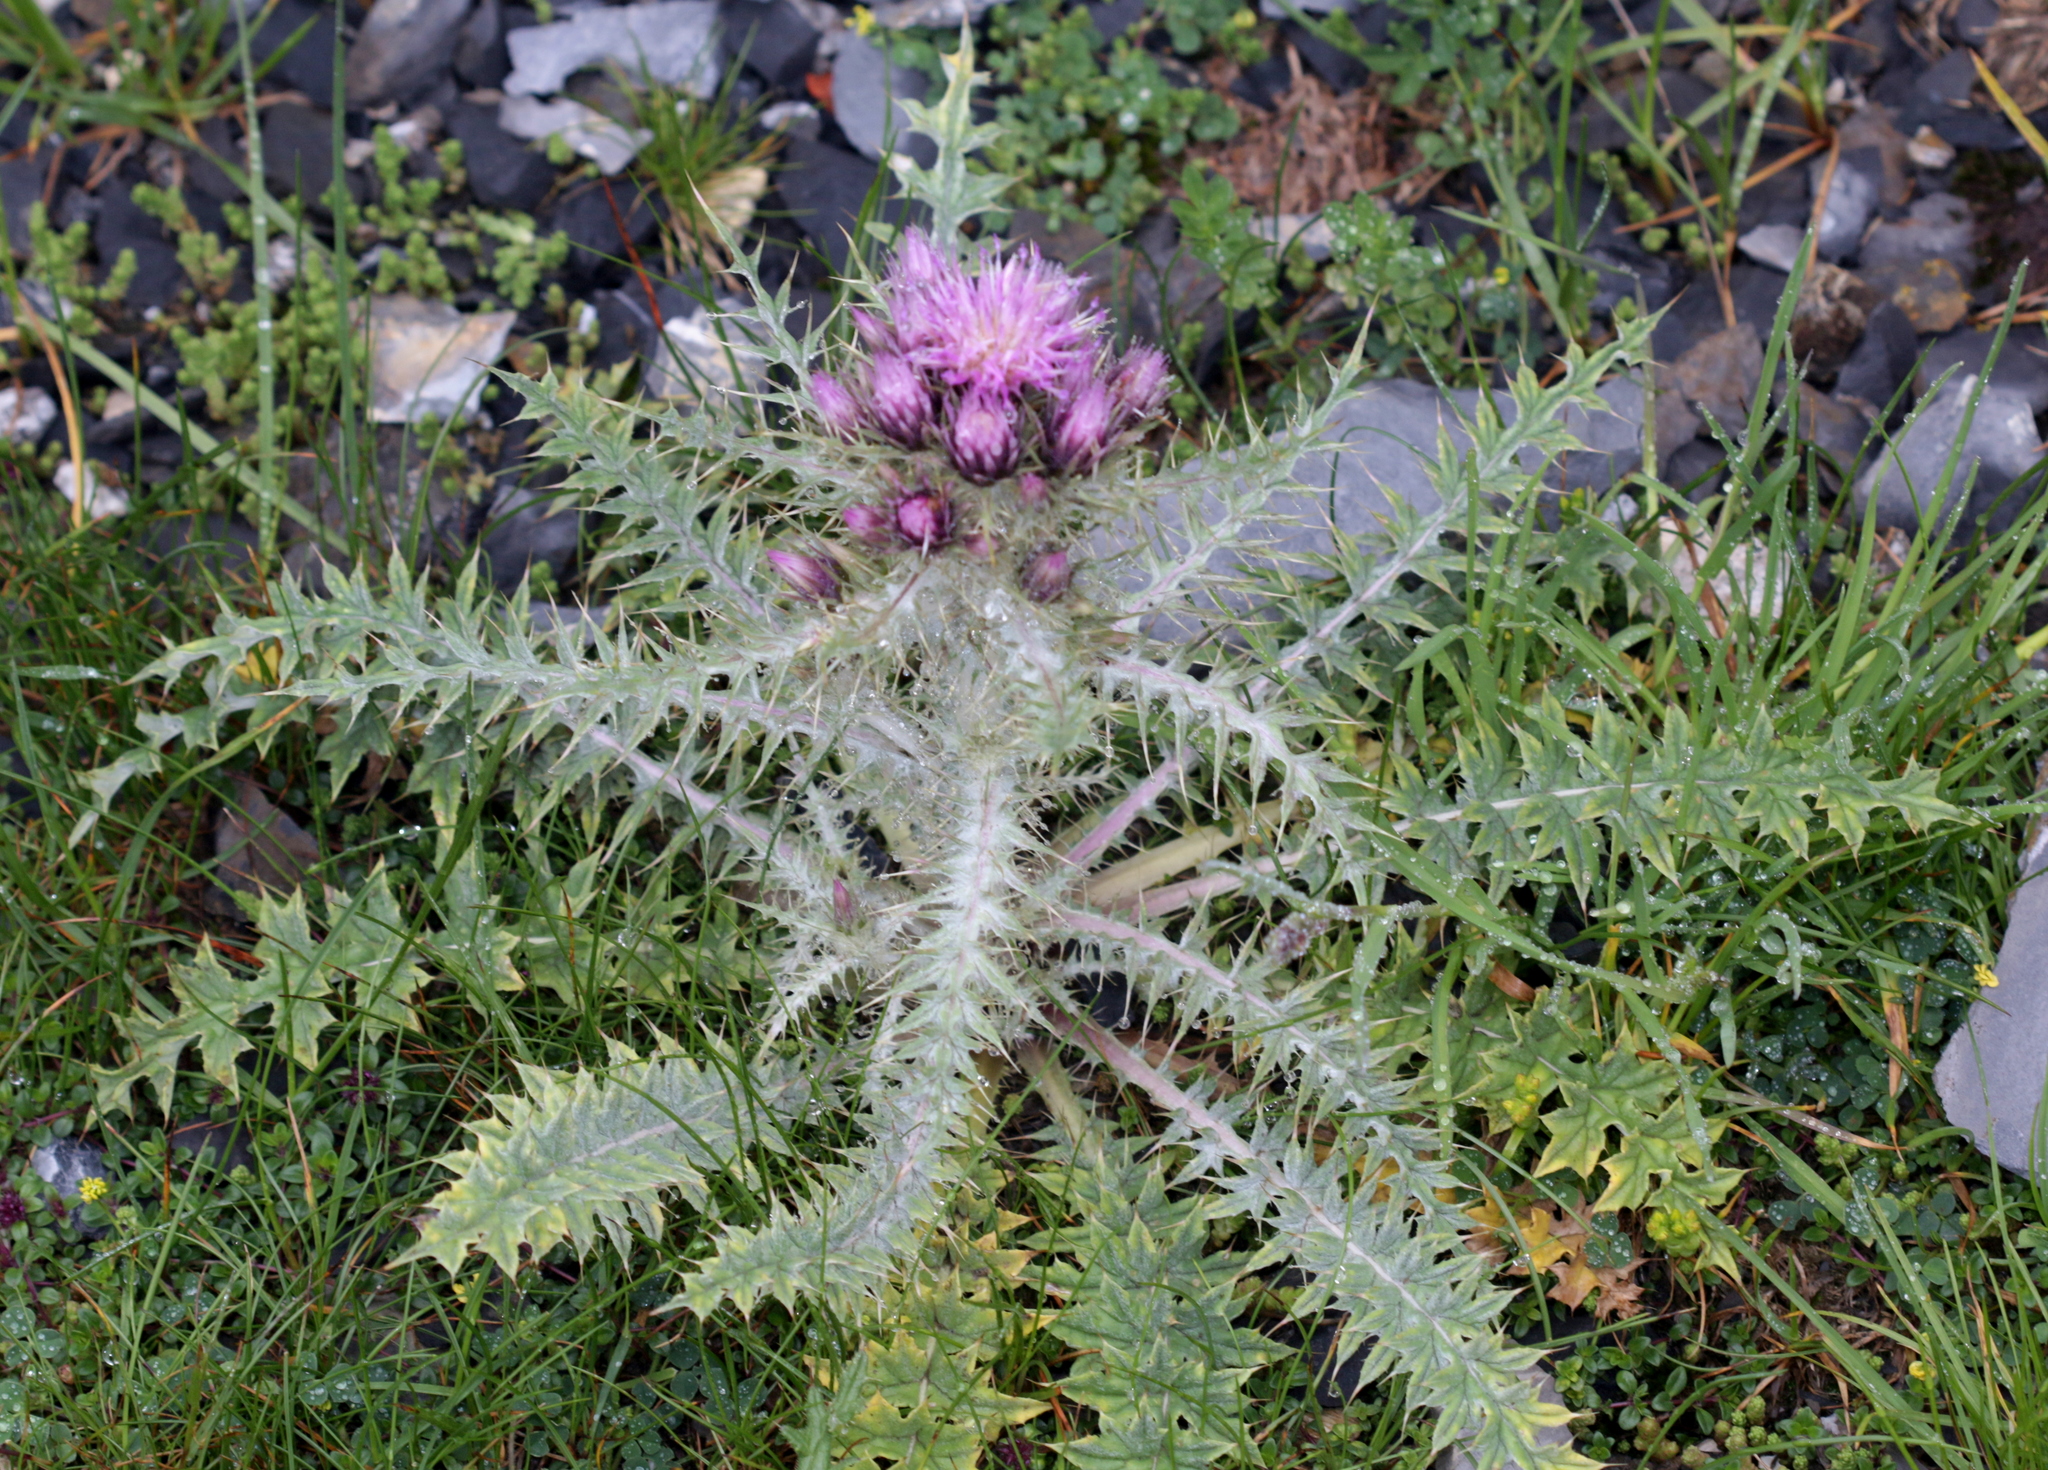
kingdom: Plantae
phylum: Tracheophyta
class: Magnoliopsida
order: Asterales
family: Asteraceae
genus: Carduus
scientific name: Carduus carlinoides
